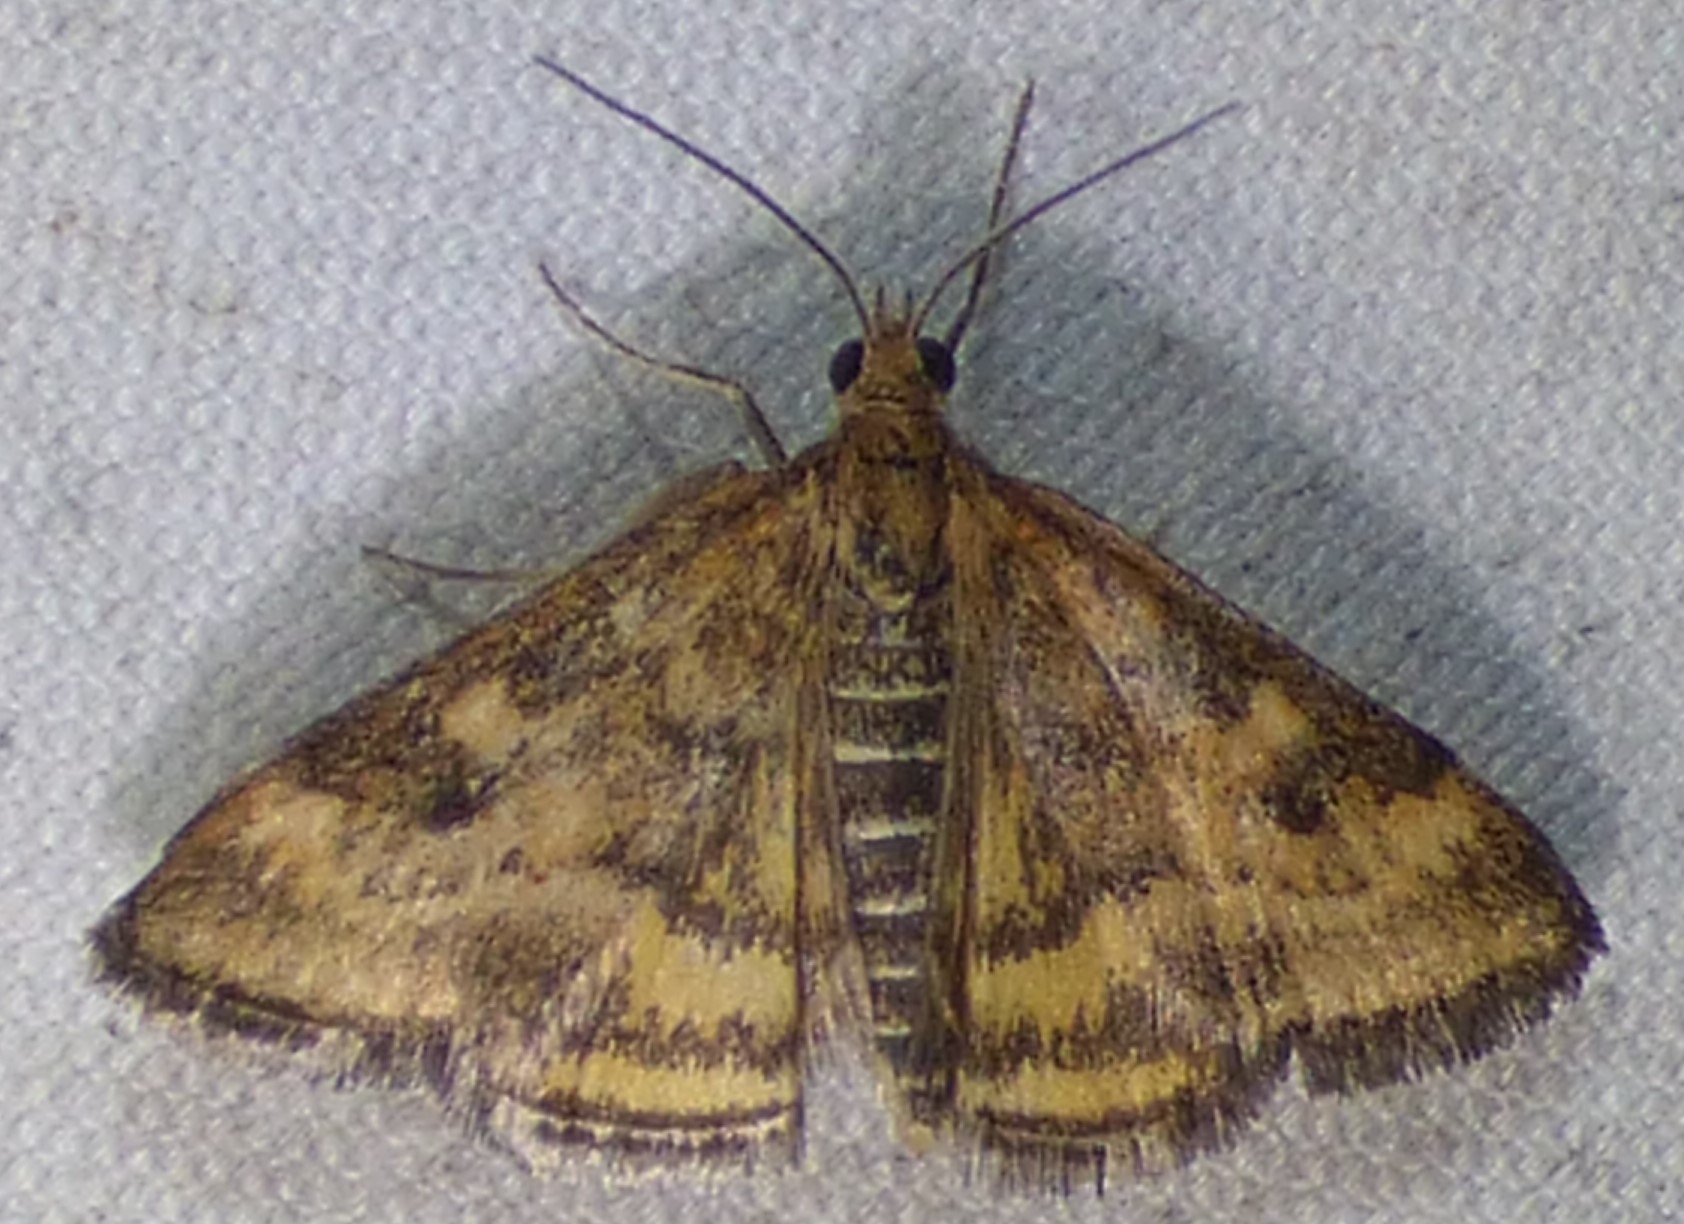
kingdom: Animalia
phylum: Arthropoda
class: Insecta
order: Lepidoptera
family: Crambidae
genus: Pyrausta
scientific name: Pyrausta subsequalis
